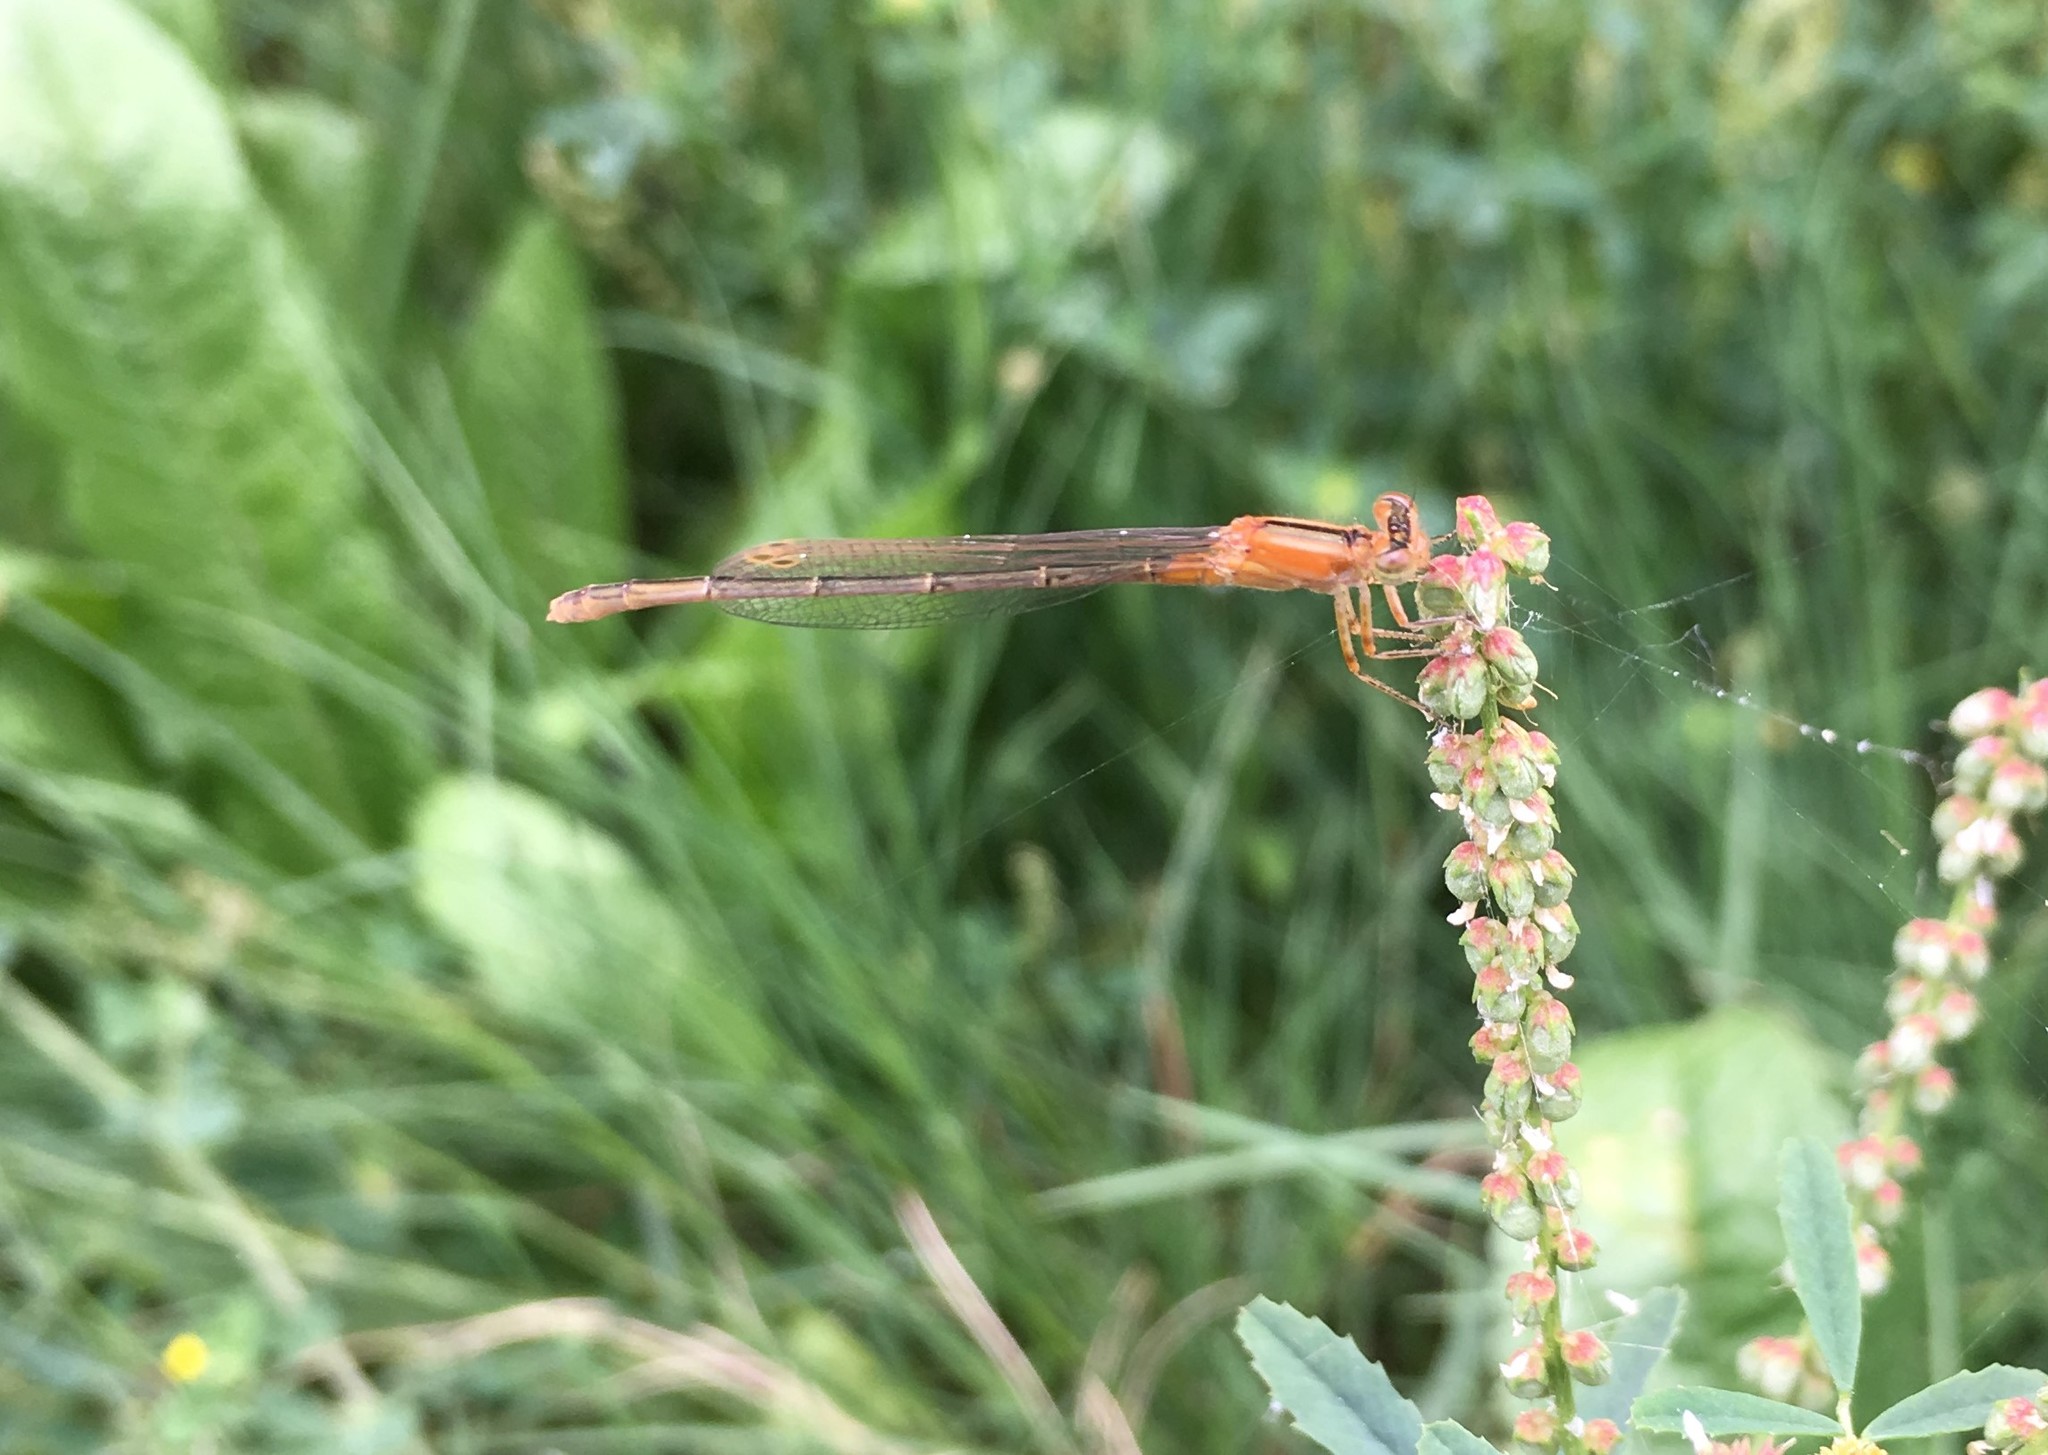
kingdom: Animalia
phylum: Arthropoda
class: Insecta
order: Odonata
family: Coenagrionidae
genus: Ischnura
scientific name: Ischnura fluviatilis
